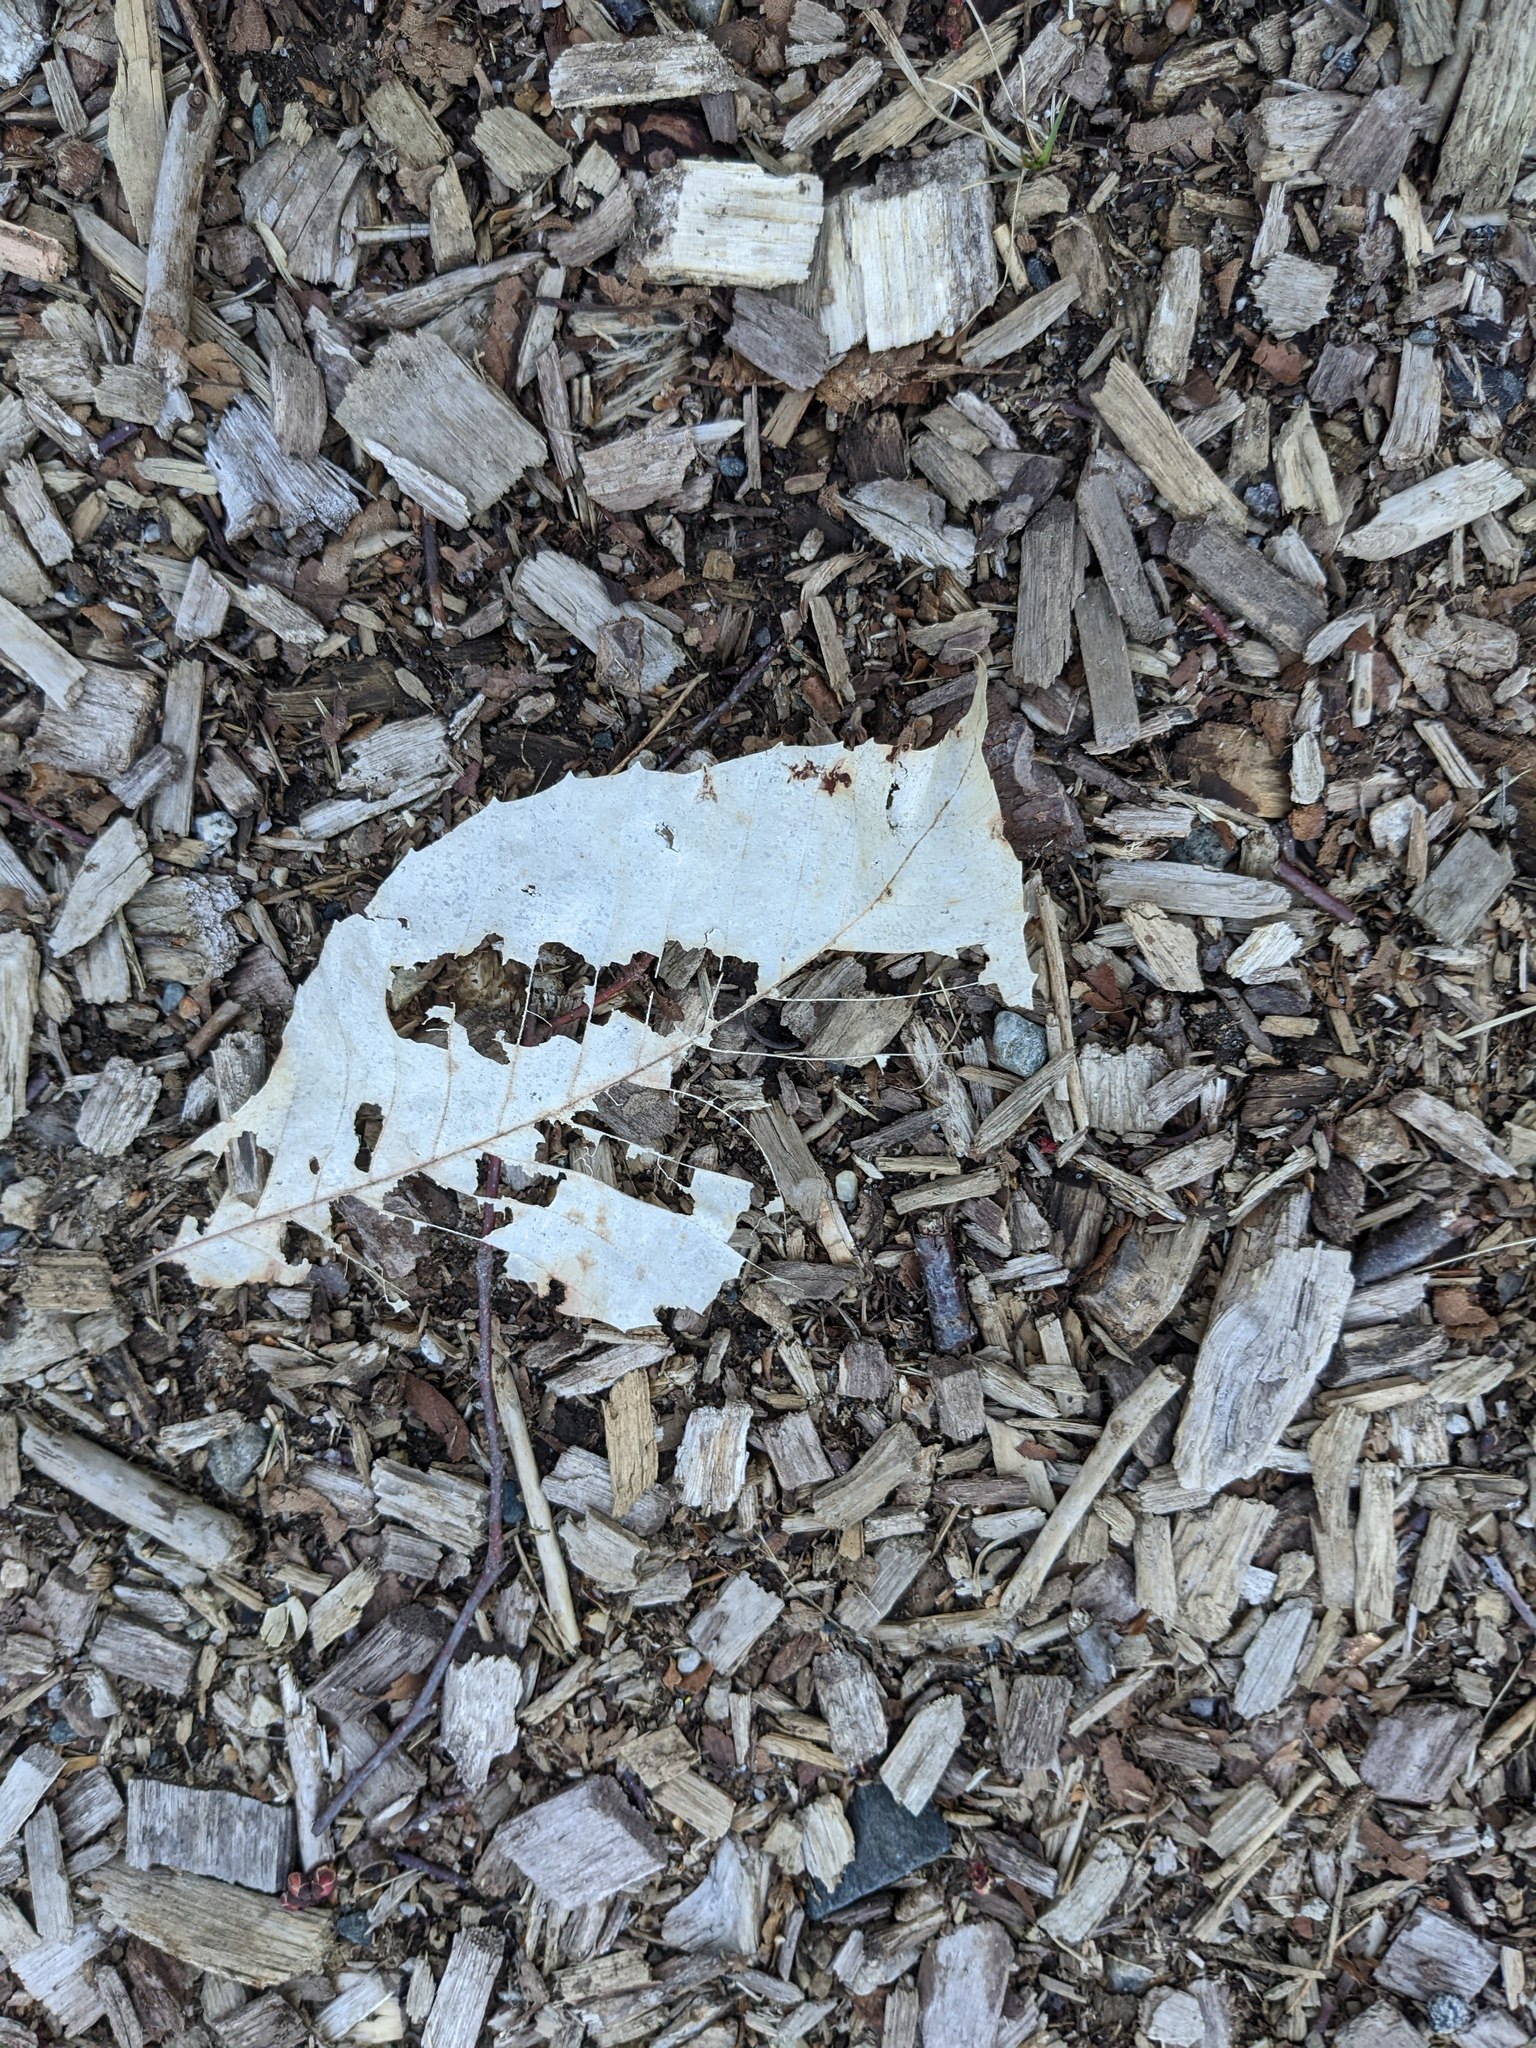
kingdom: Plantae
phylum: Tracheophyta
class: Magnoliopsida
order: Fagales
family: Fagaceae
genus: Fagus
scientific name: Fagus grandifolia
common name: American beech
